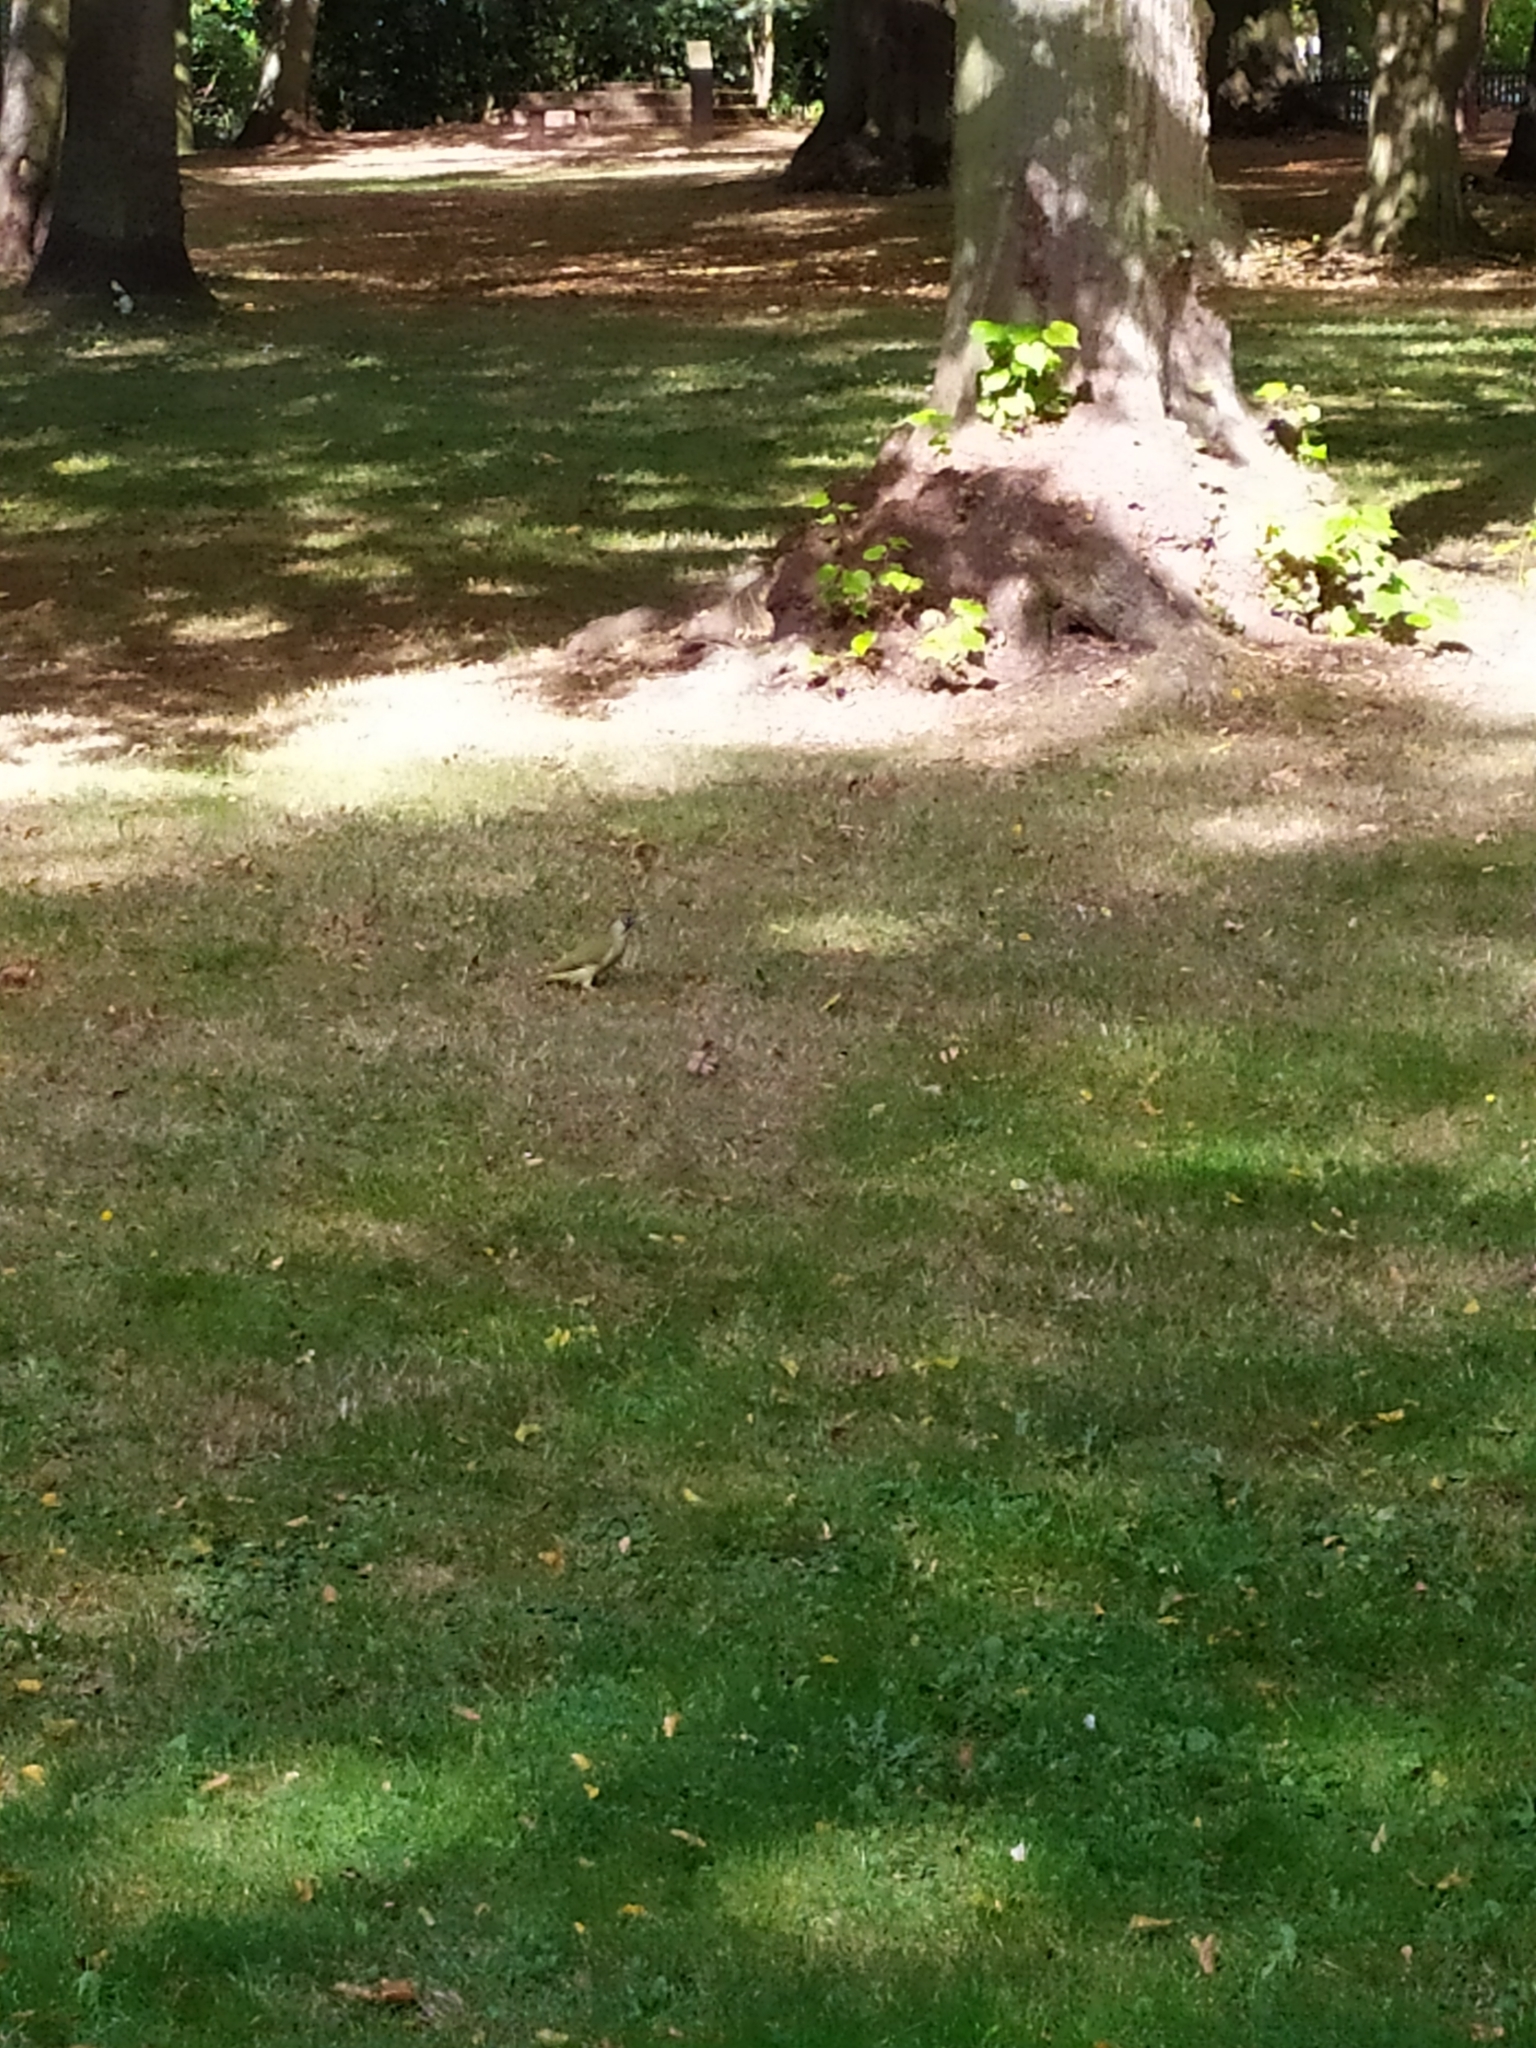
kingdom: Animalia
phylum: Chordata
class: Aves
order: Piciformes
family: Picidae
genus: Picus
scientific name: Picus viridis
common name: European green woodpecker
